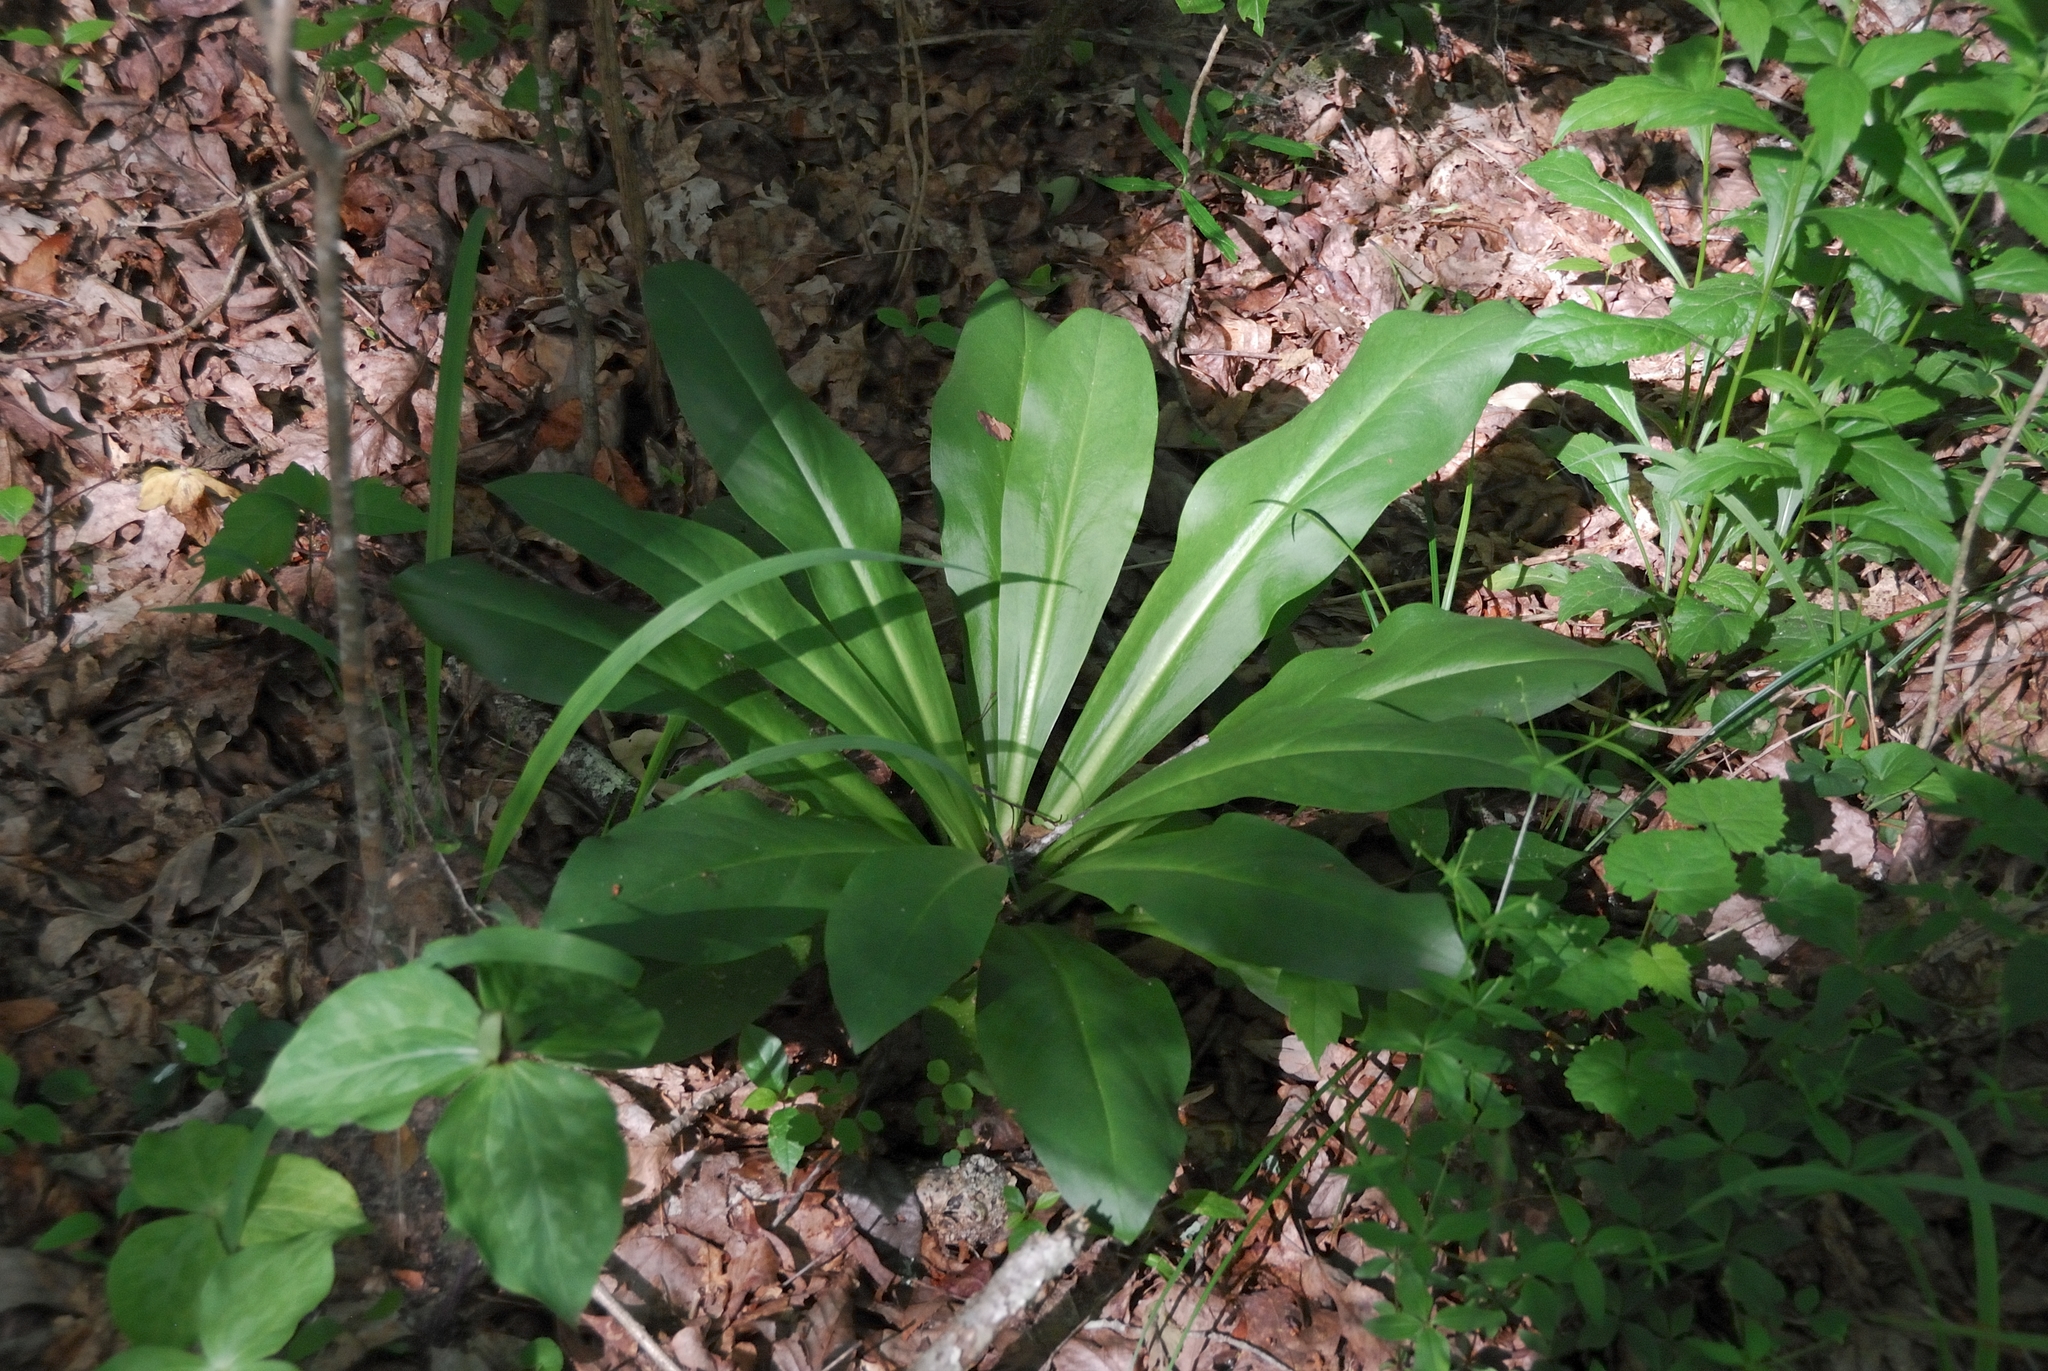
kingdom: Plantae
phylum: Tracheophyta
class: Magnoliopsida
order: Gentianales
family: Gentianaceae
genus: Frasera
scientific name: Frasera caroliniensis
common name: American columbo
